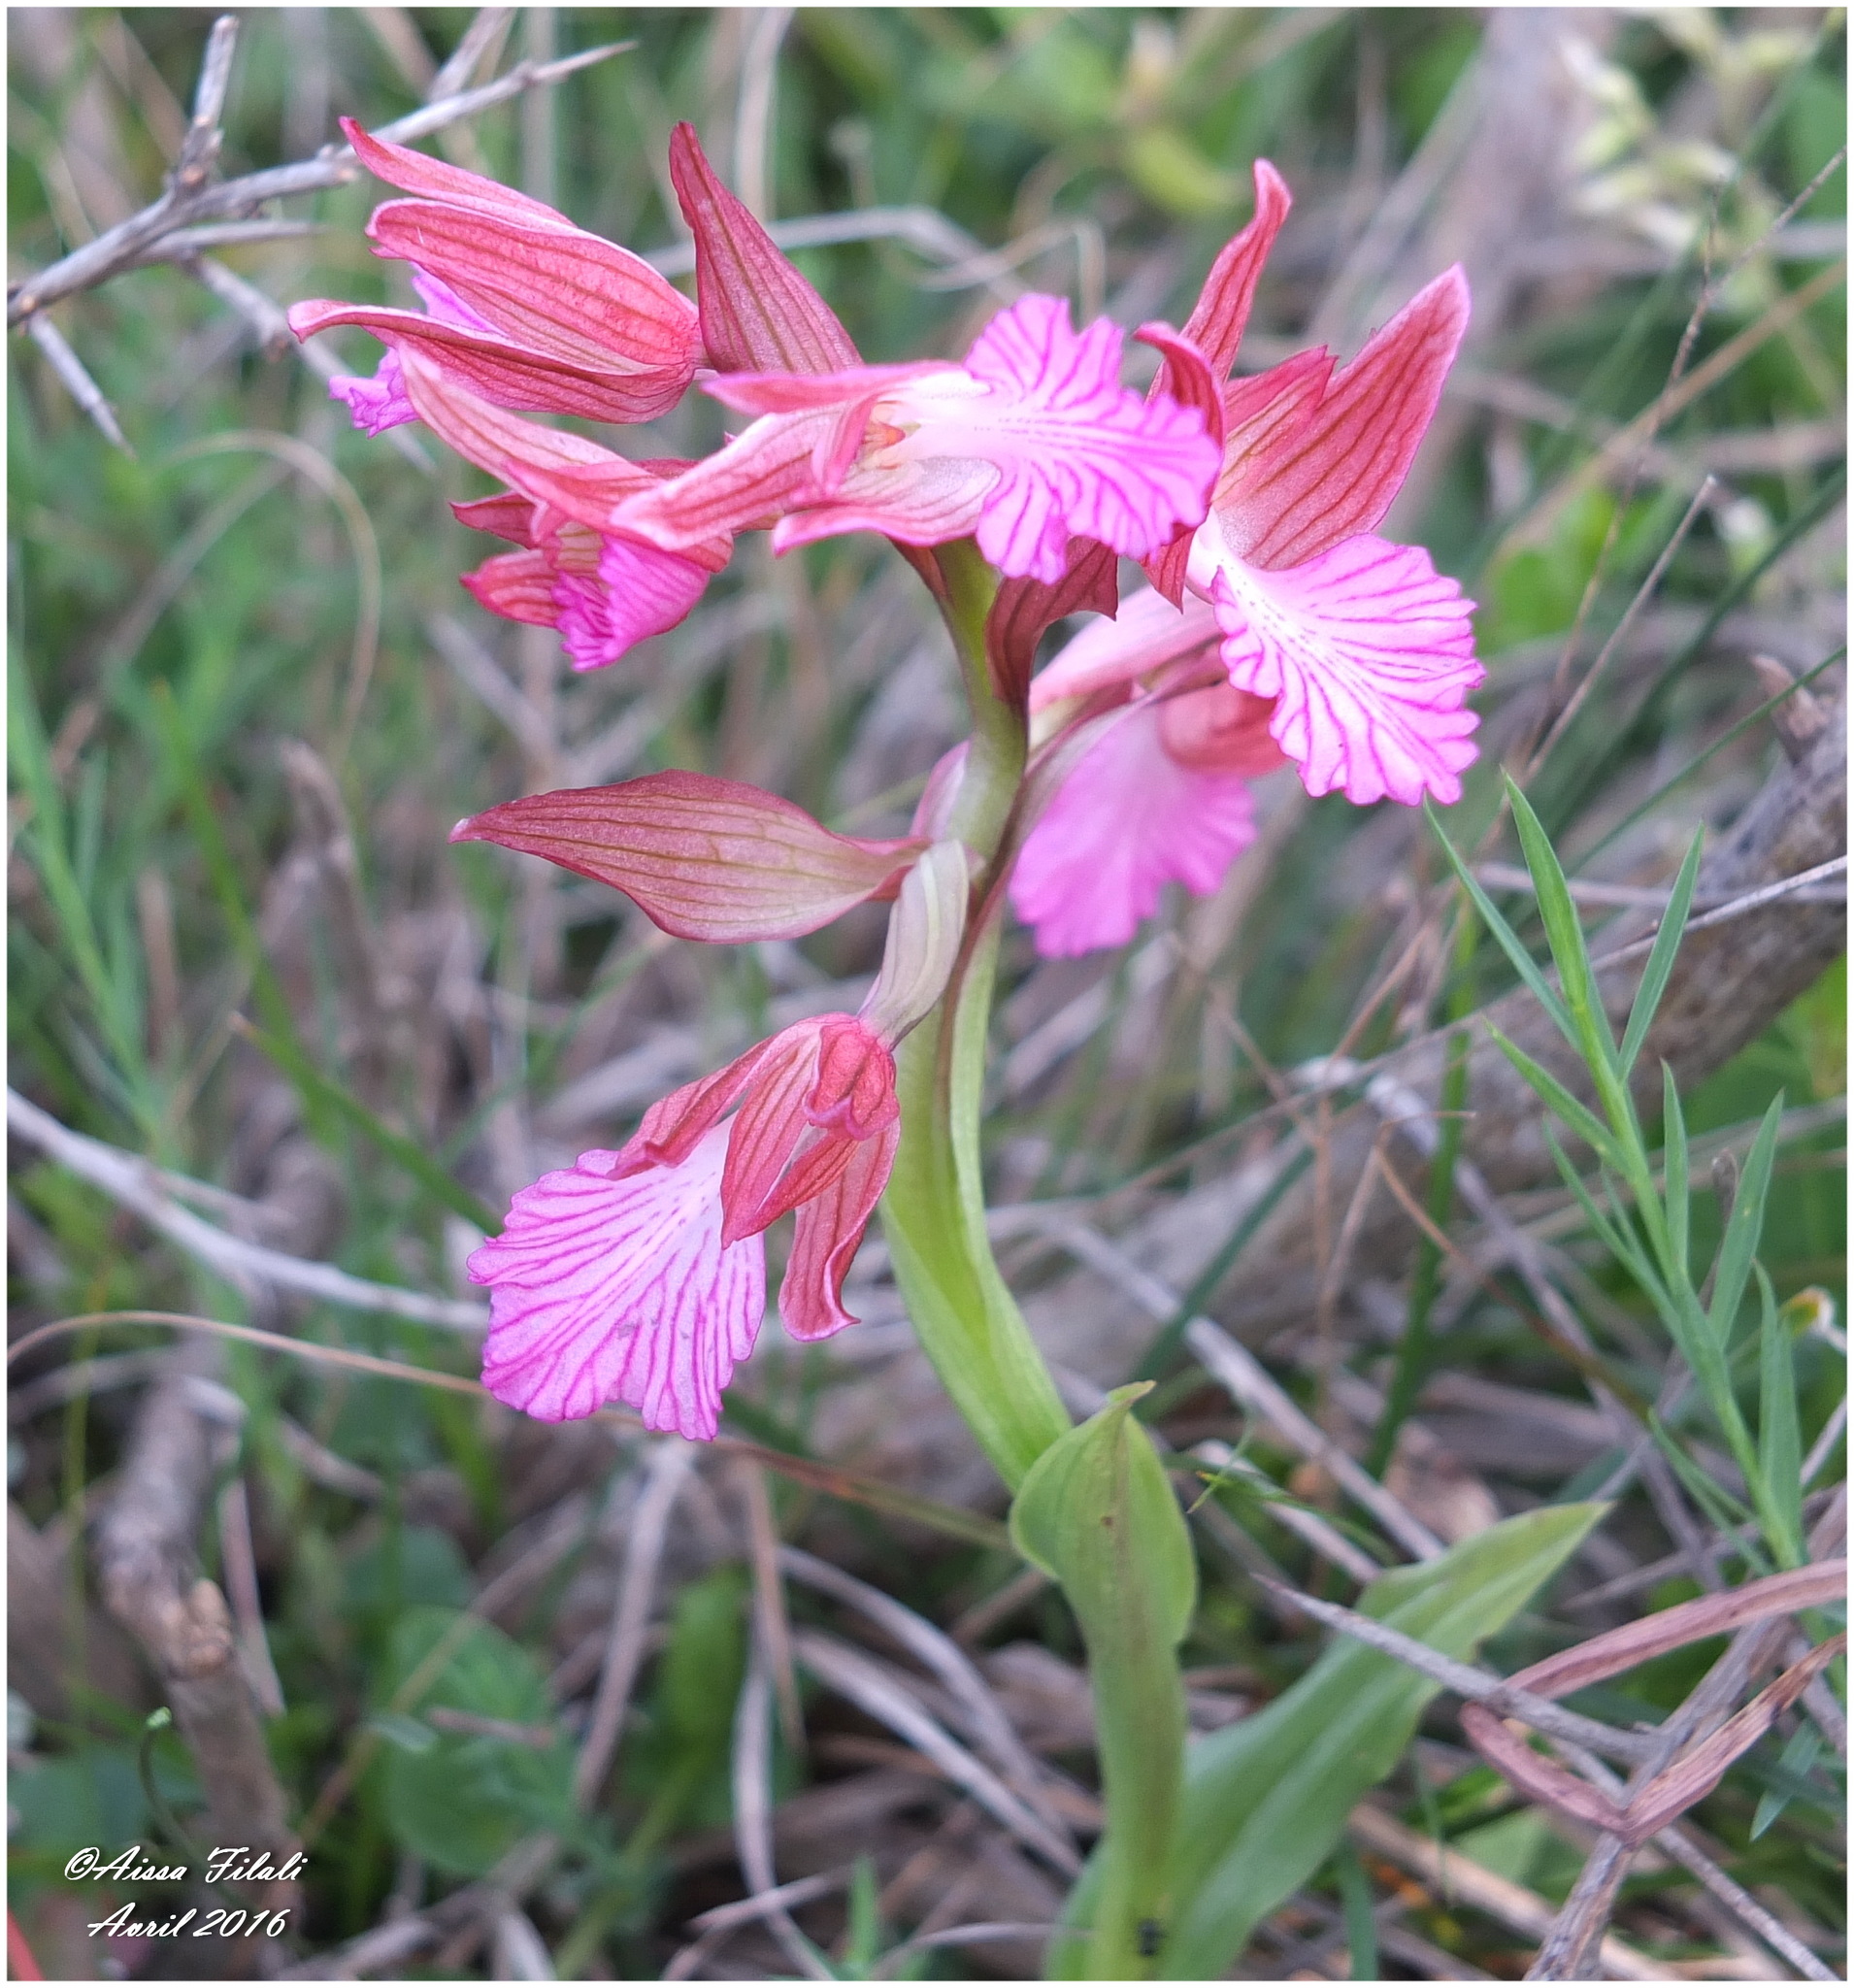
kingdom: Plantae
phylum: Tracheophyta
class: Liliopsida
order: Asparagales
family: Orchidaceae
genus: Anacamptis
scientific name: Anacamptis papilionacea
